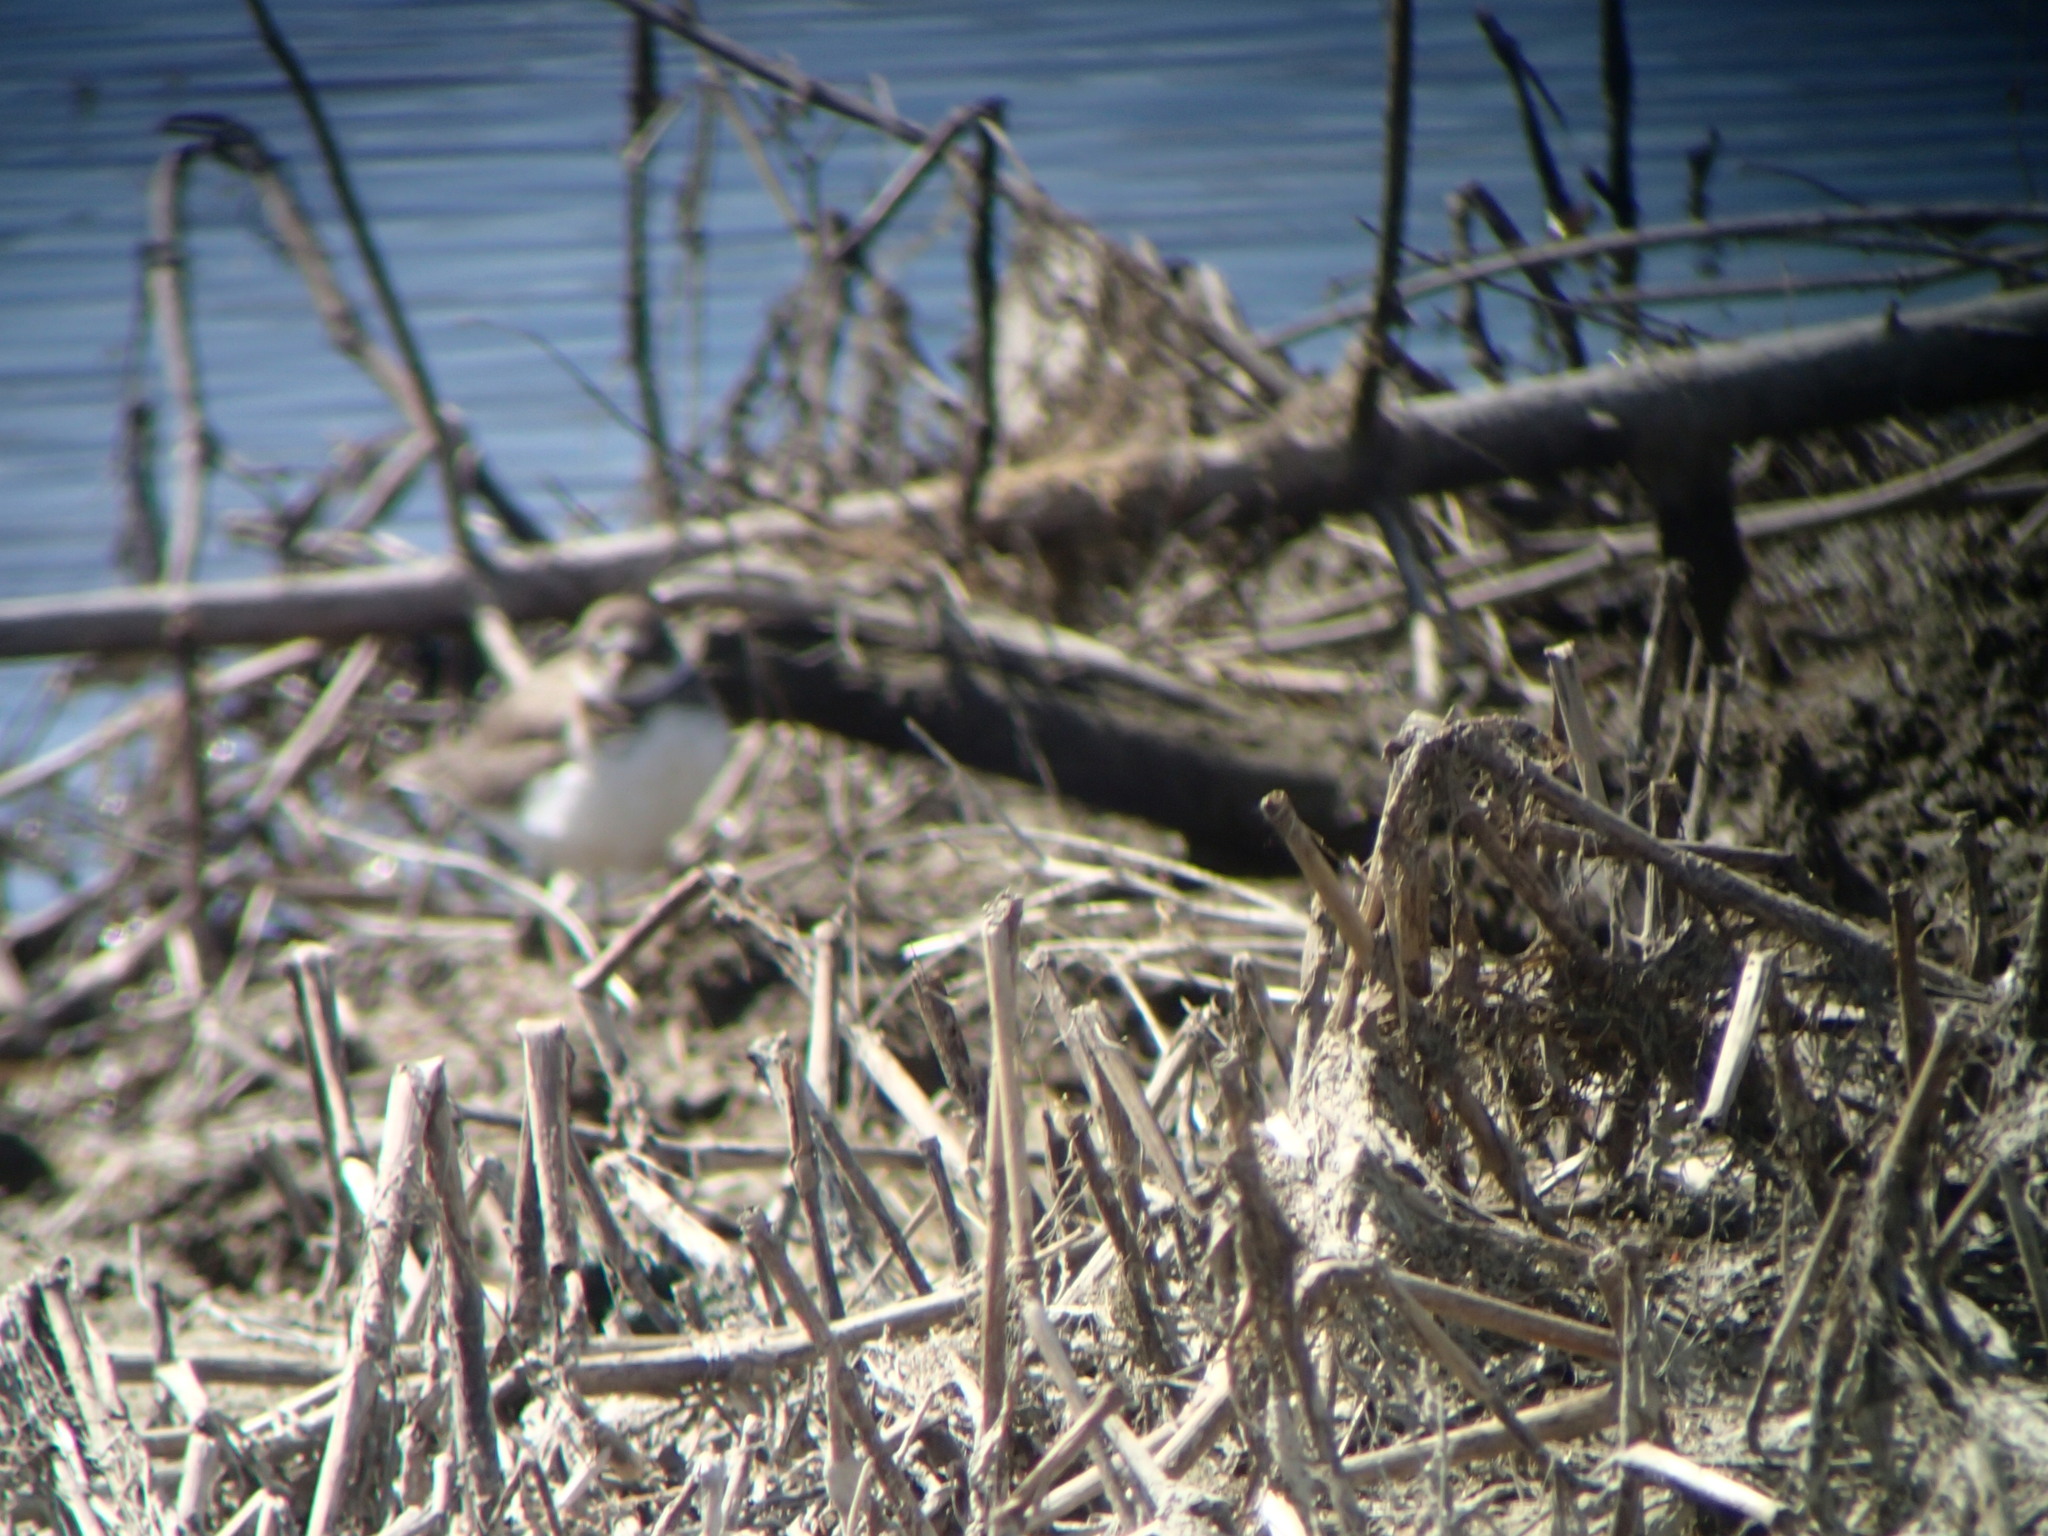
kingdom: Animalia
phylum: Chordata
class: Aves
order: Charadriiformes
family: Charadriidae
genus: Charadrius
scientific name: Charadrius semipalmatus
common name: Semipalmated plover
